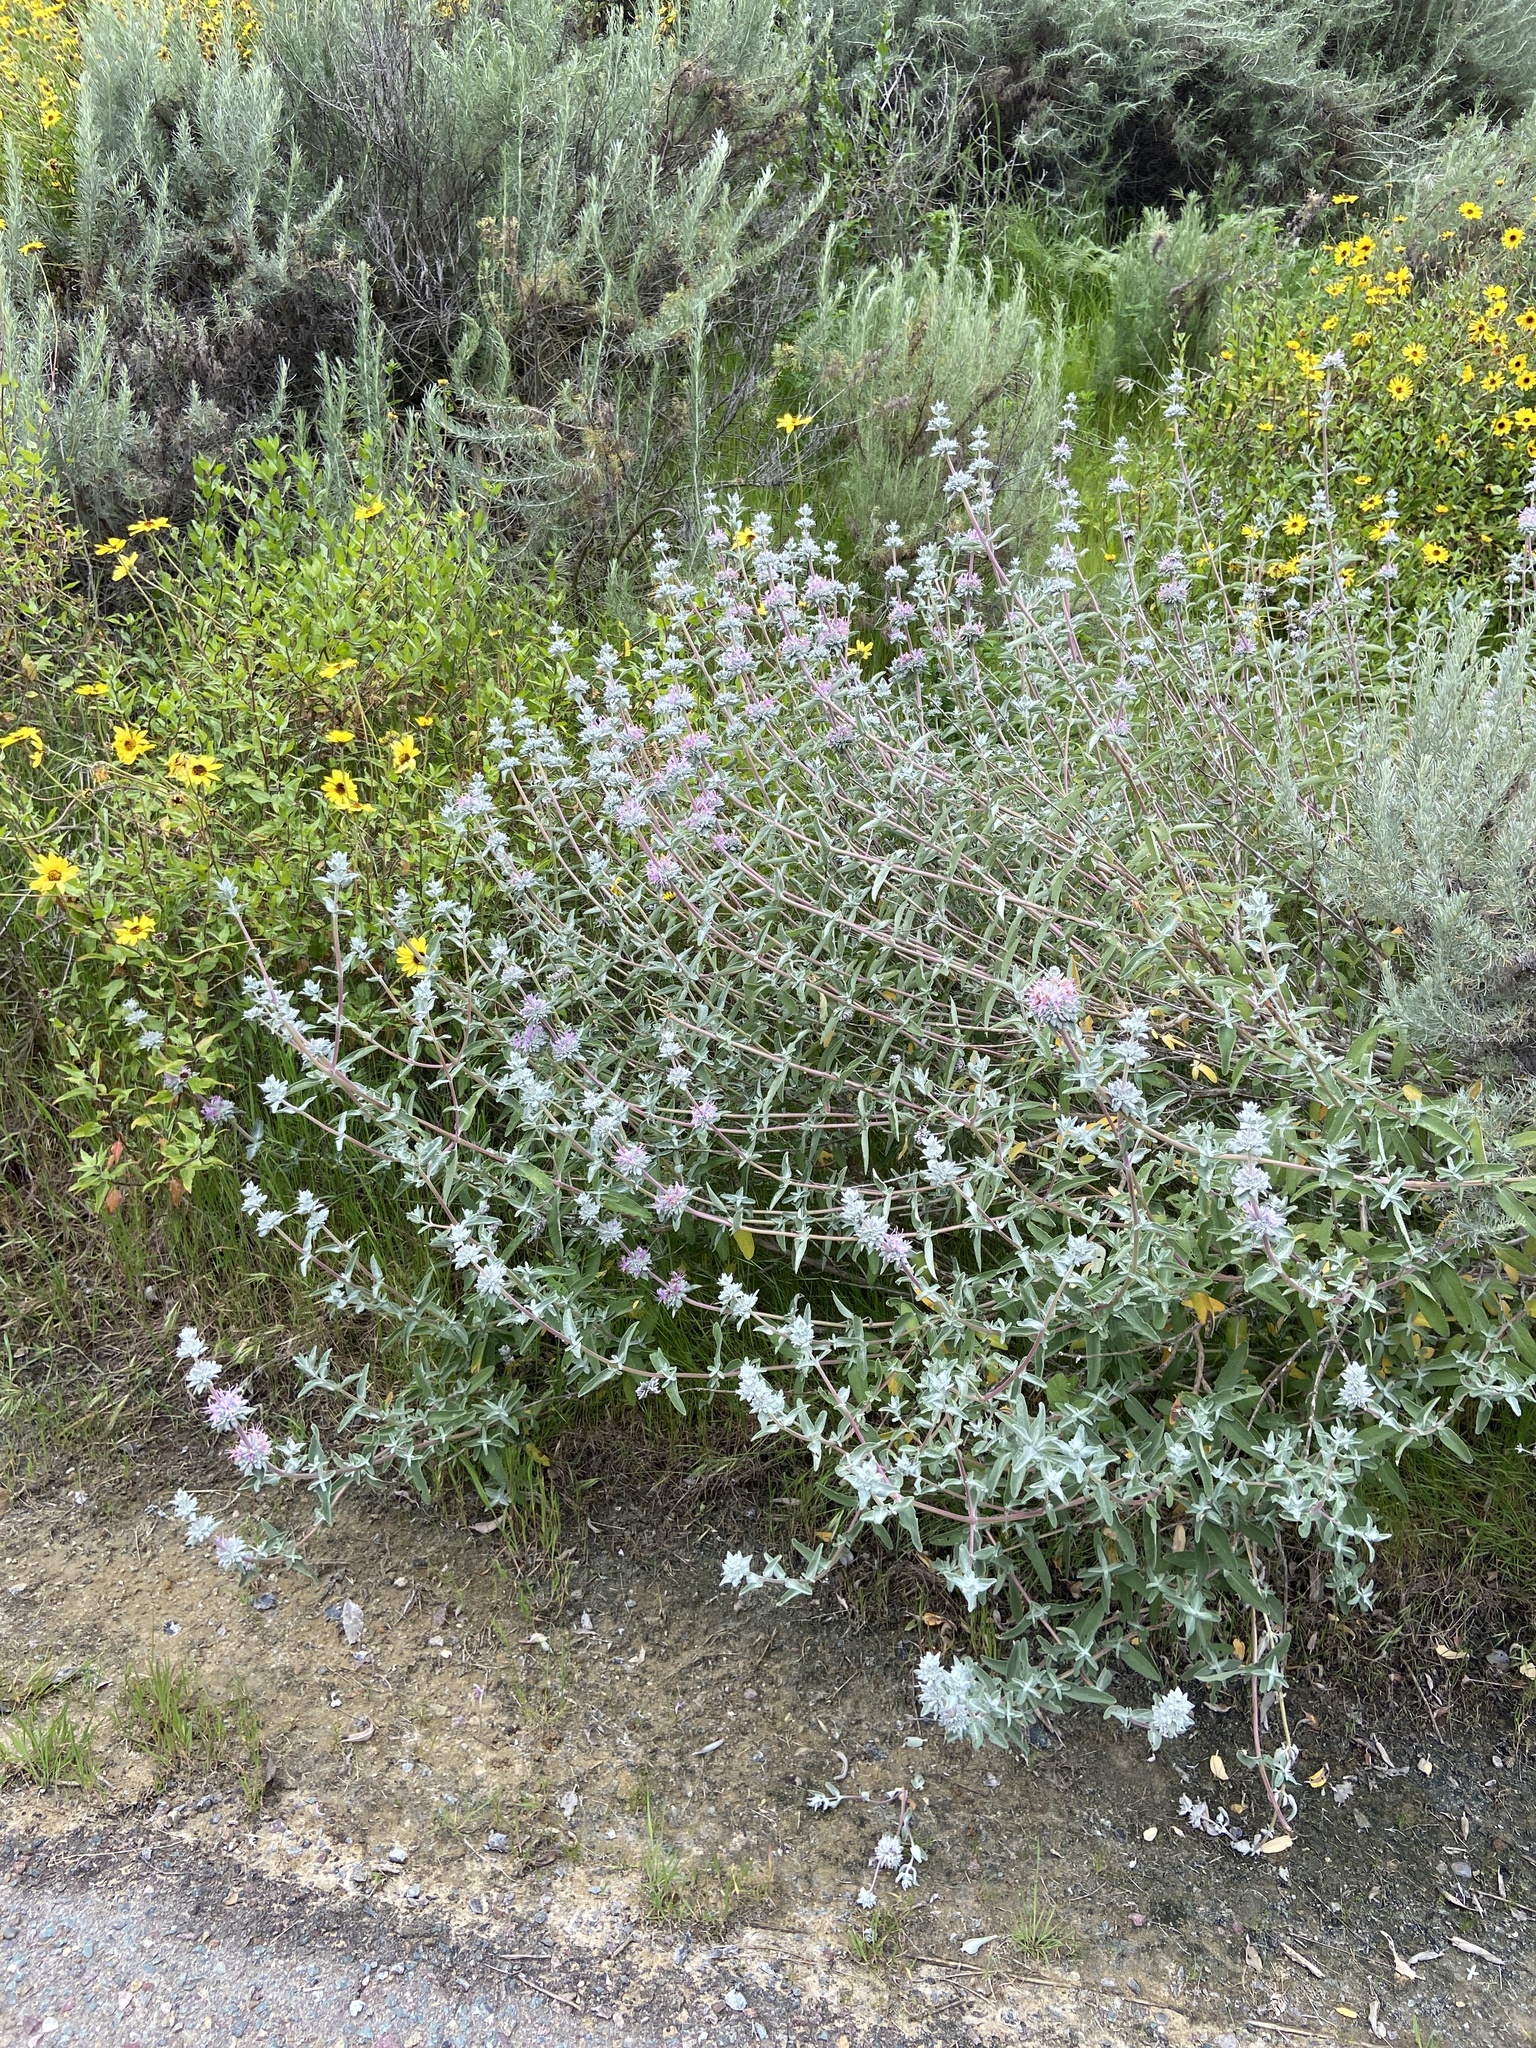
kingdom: Plantae
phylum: Tracheophyta
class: Magnoliopsida
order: Lamiales
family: Lamiaceae
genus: Salvia
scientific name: Salvia leucophylla
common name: Purple sage
